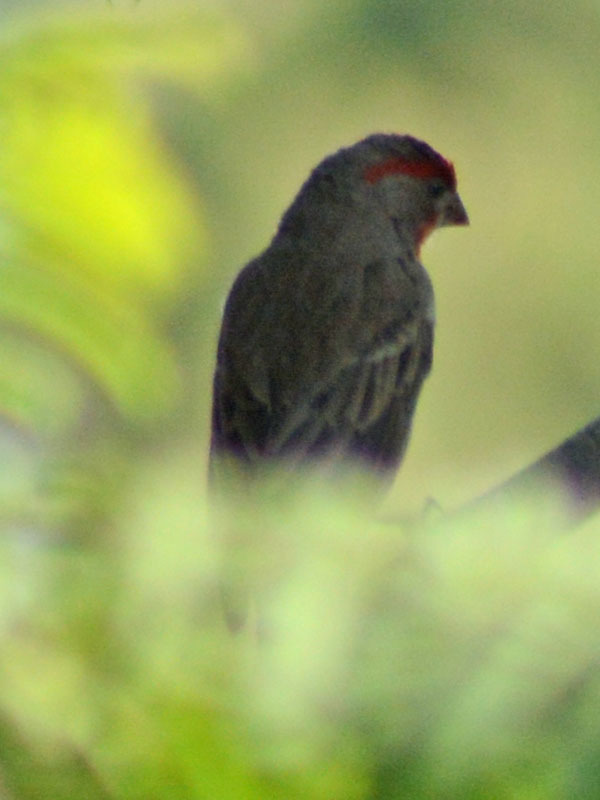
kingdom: Animalia
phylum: Chordata
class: Aves
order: Passeriformes
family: Fringillidae
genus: Haemorhous
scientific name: Haemorhous mexicanus
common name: House finch
